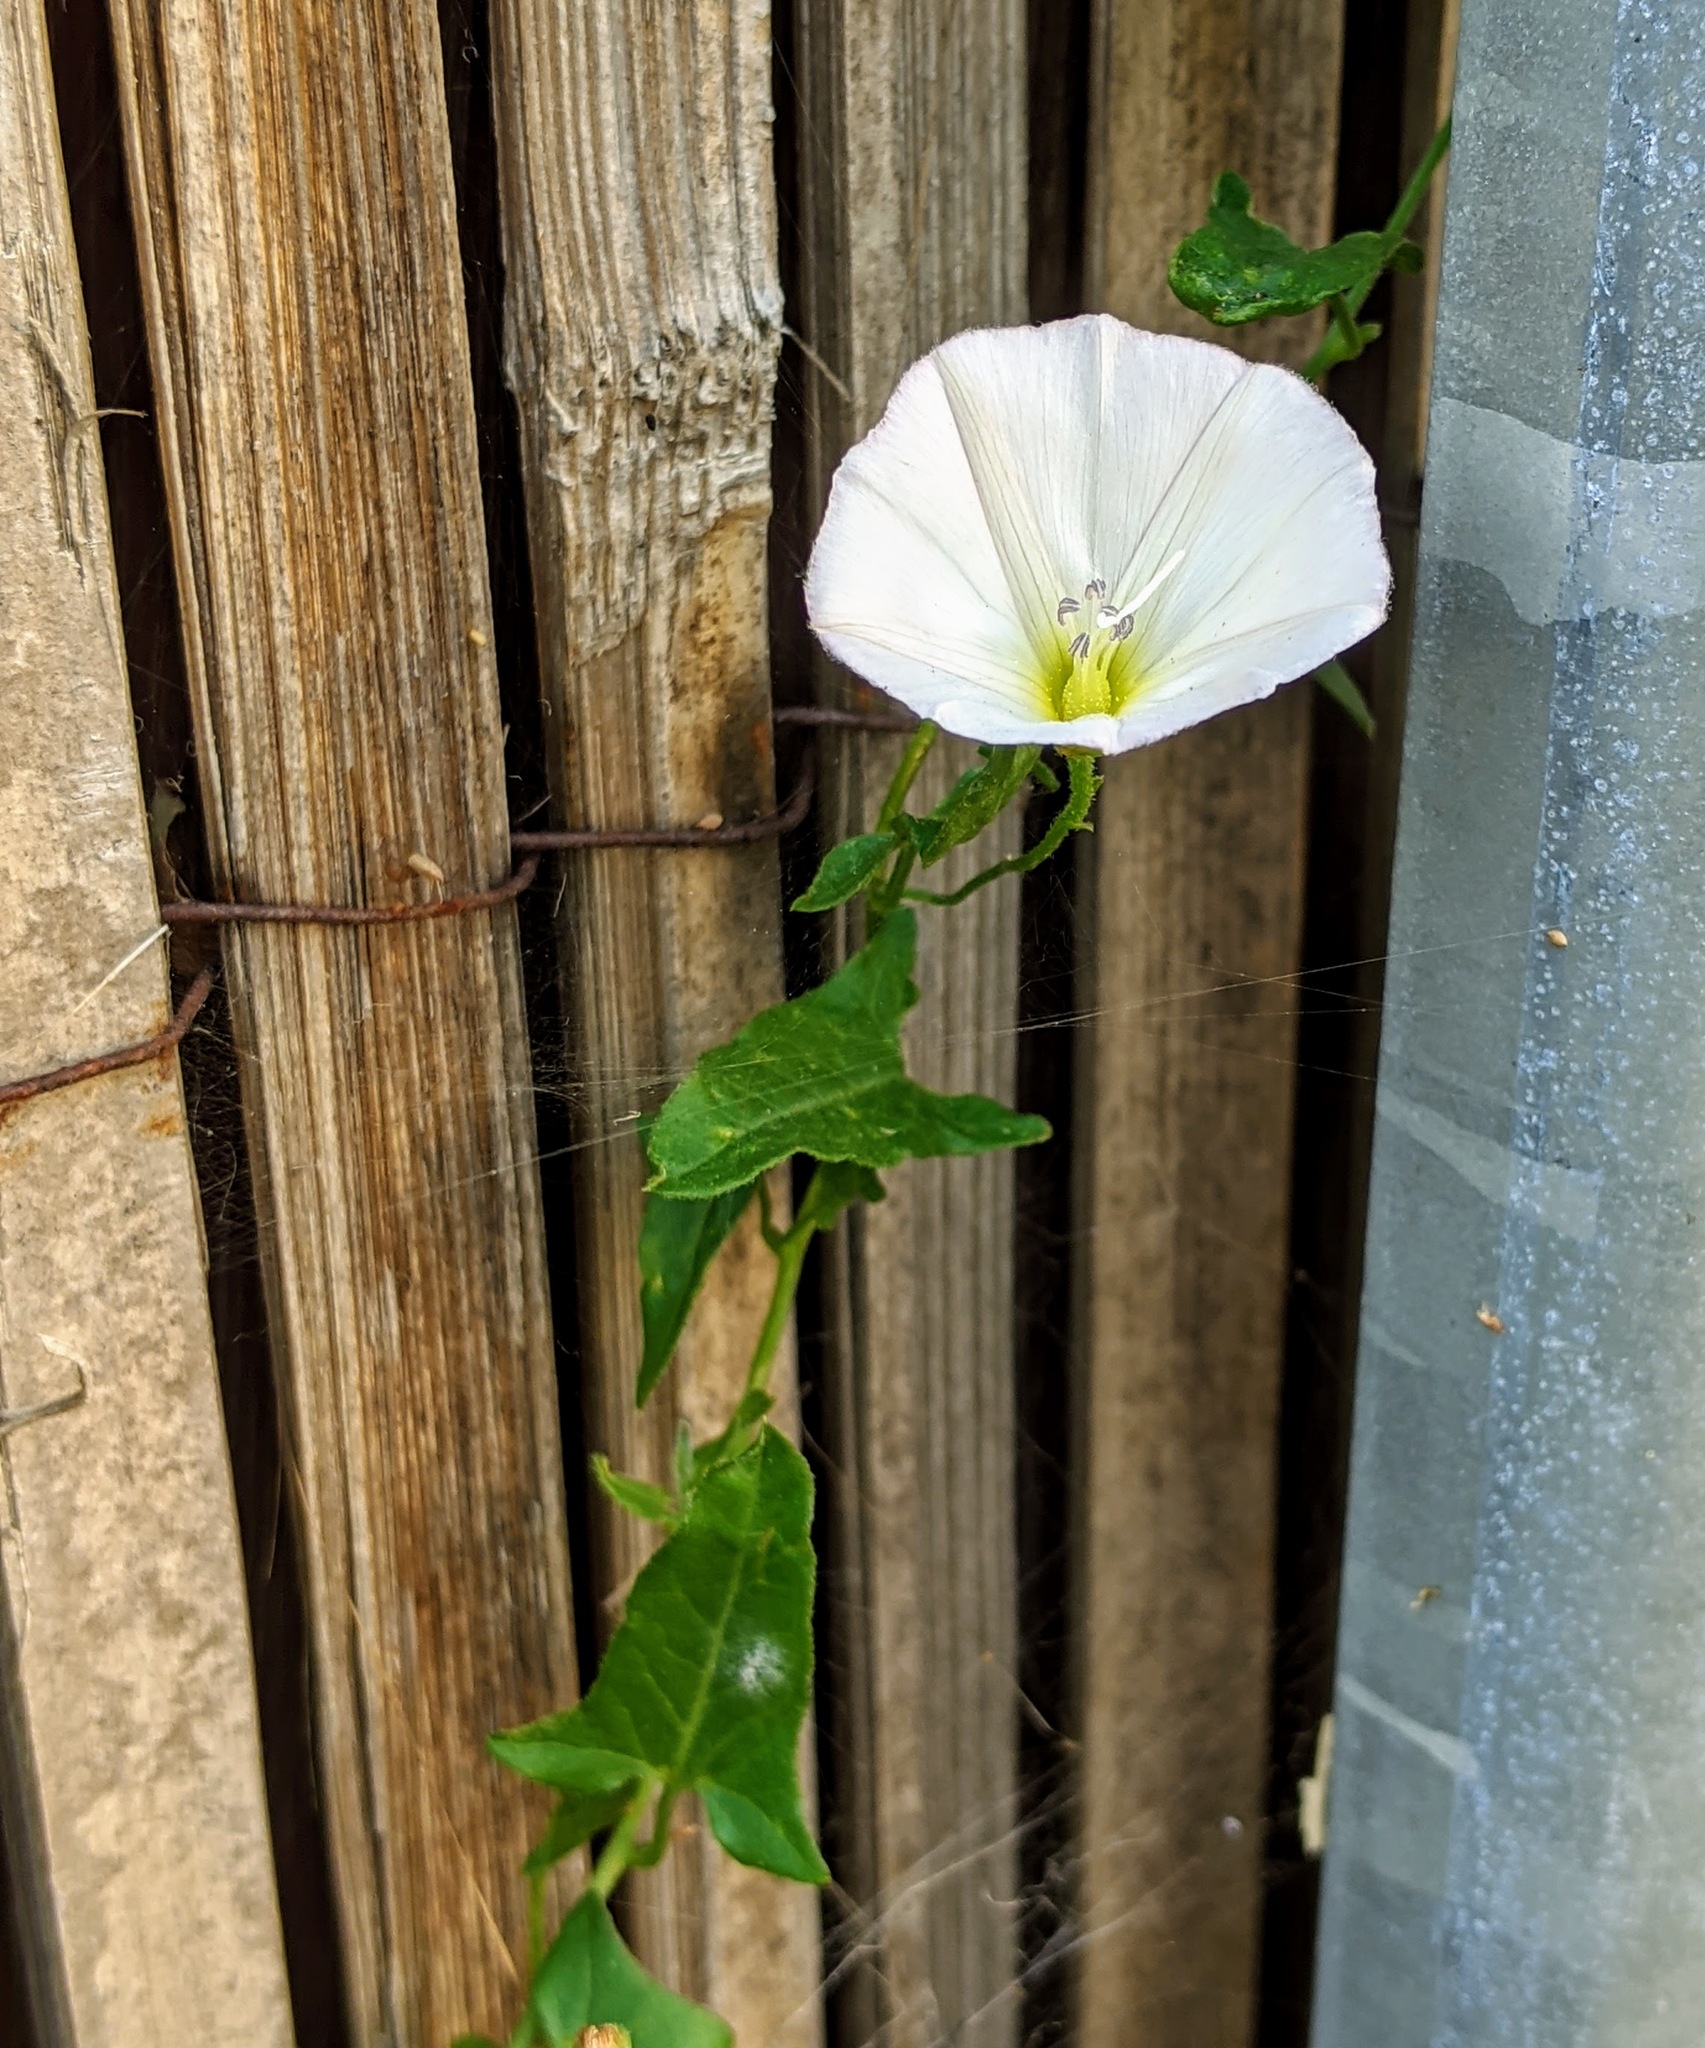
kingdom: Plantae
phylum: Tracheophyta
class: Magnoliopsida
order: Solanales
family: Convolvulaceae
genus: Convolvulus
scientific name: Convolvulus arvensis
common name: Field bindweed
